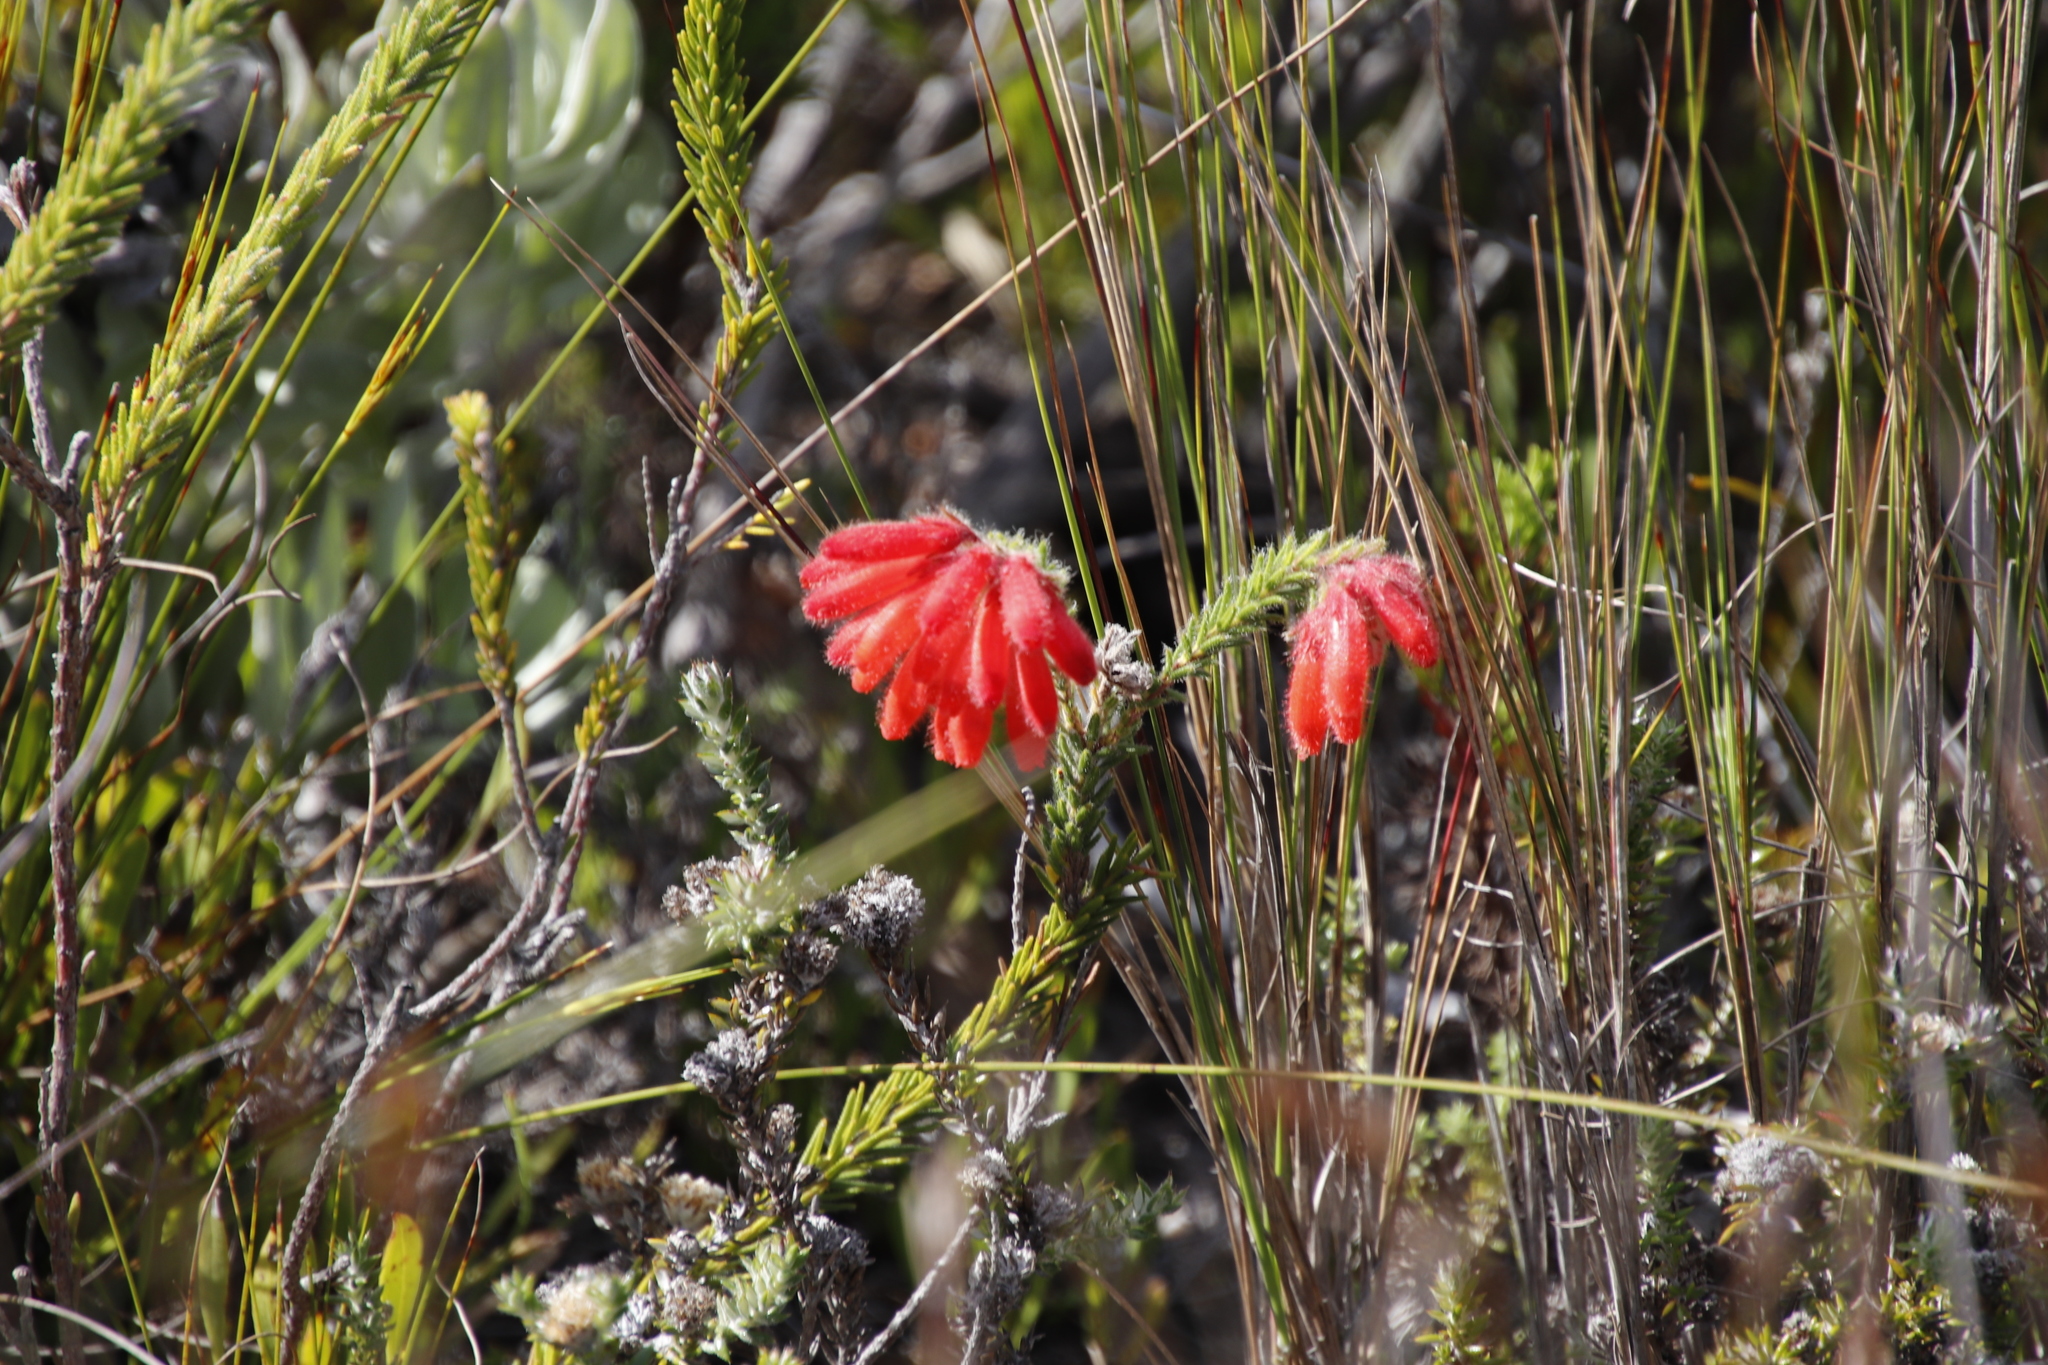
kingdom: Plantae
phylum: Tracheophyta
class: Magnoliopsida
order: Ericales
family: Ericaceae
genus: Erica
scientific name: Erica cerinthoides
